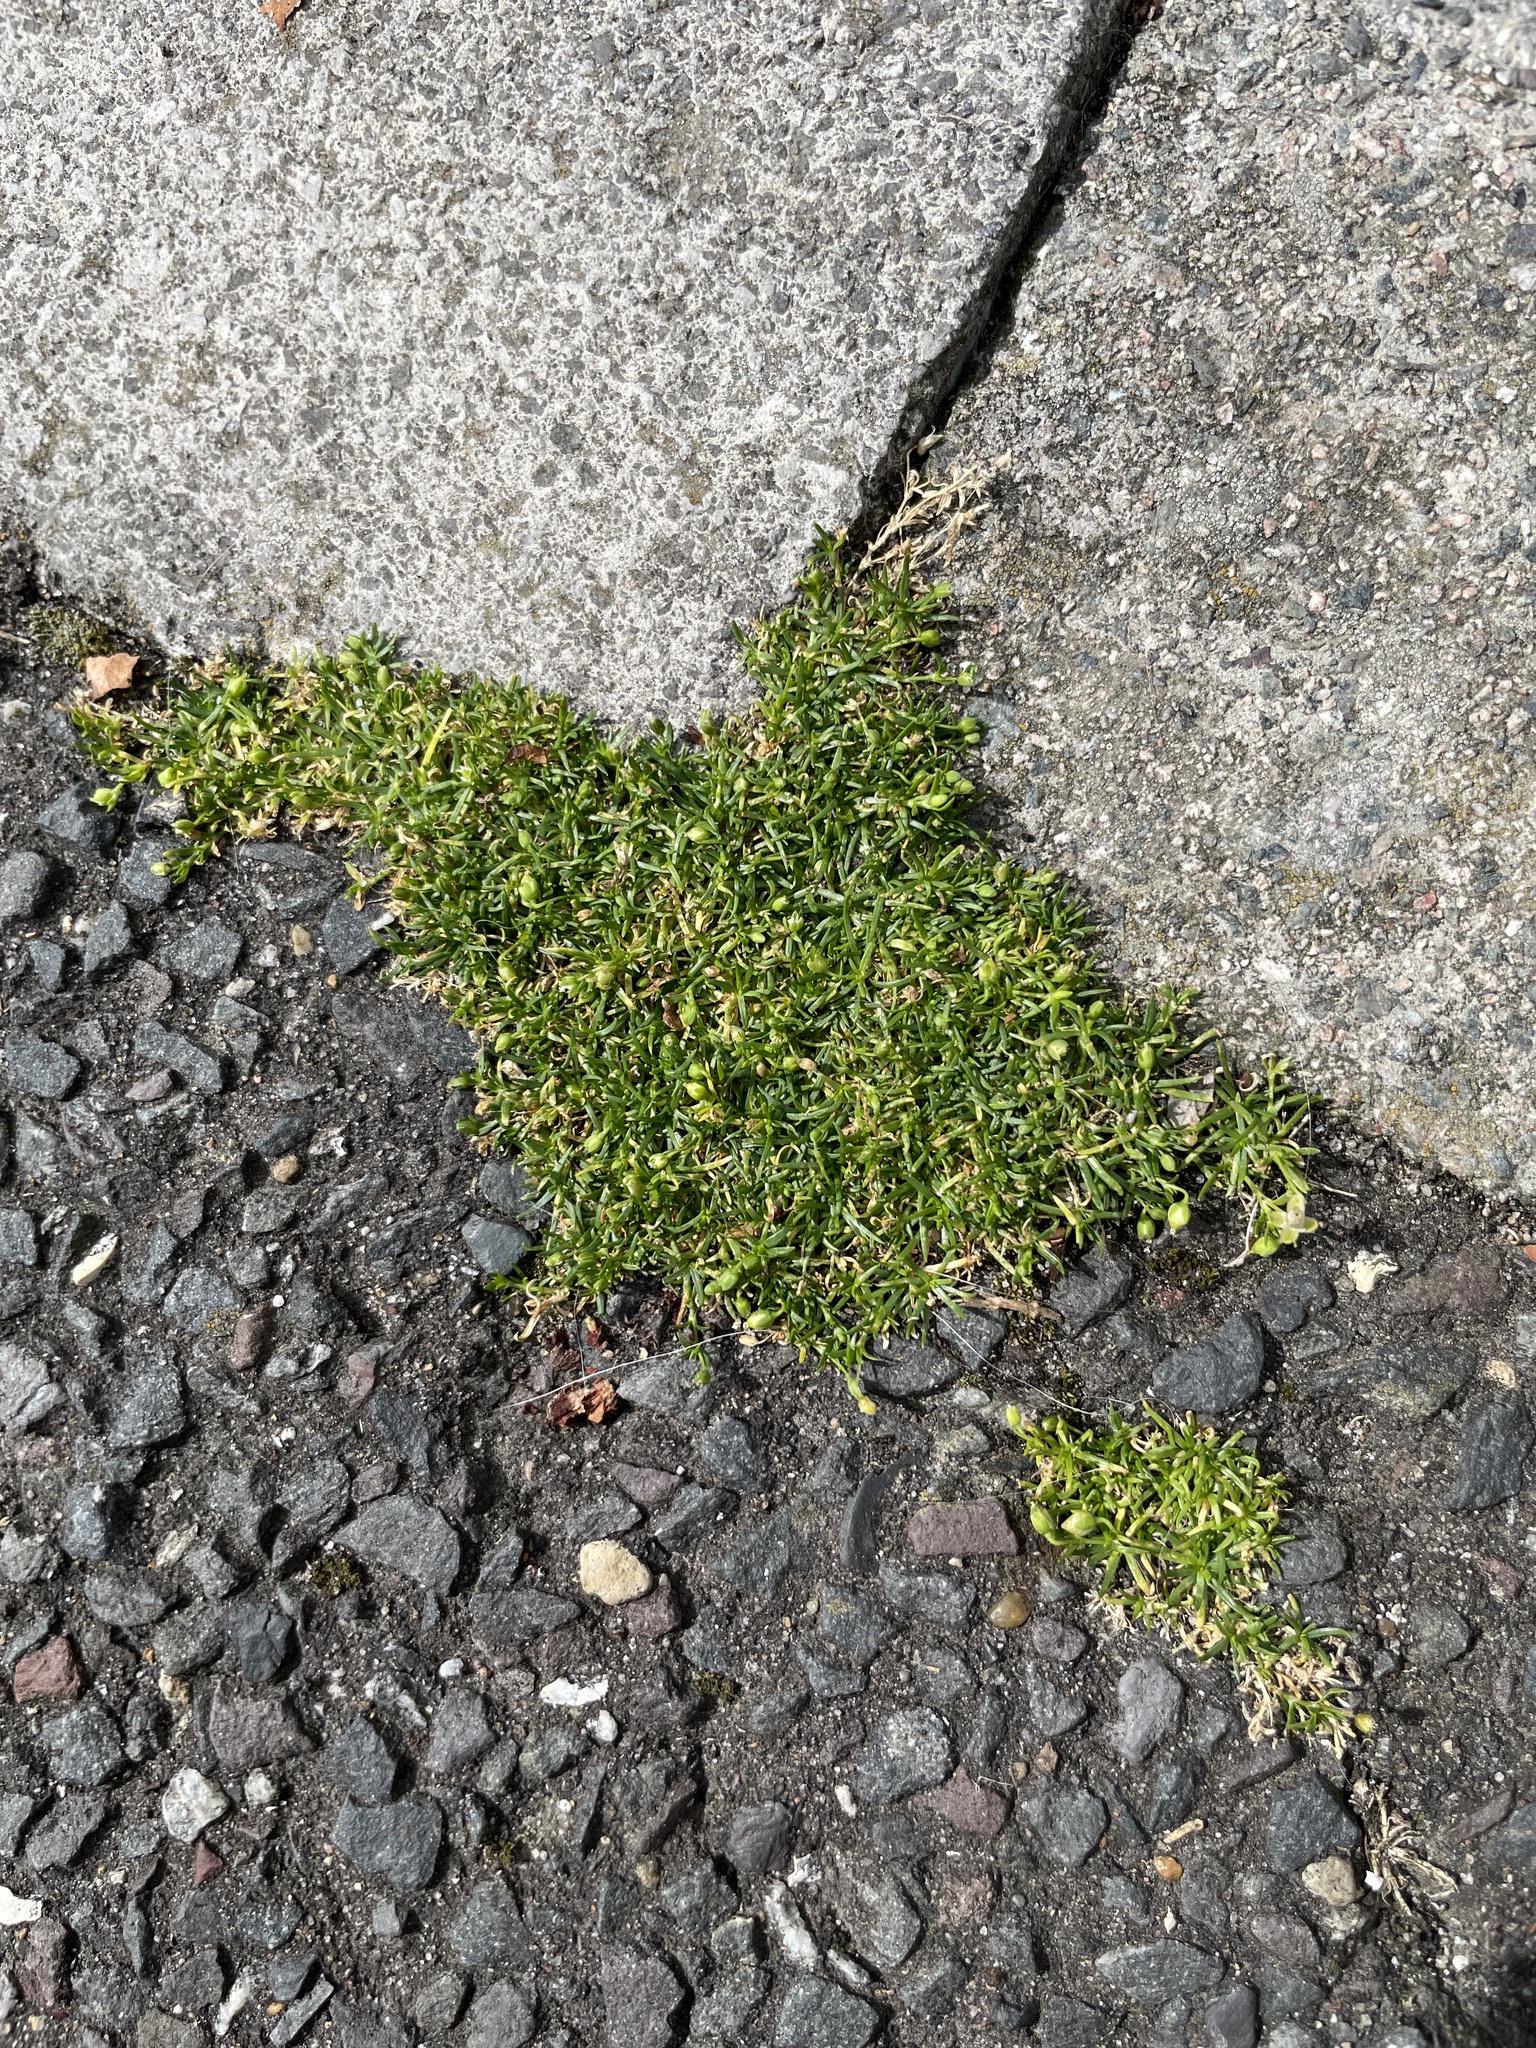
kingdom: Plantae
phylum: Tracheophyta
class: Magnoliopsida
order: Caryophyllales
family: Caryophyllaceae
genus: Sagina
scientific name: Sagina procumbens
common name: Procumbent pearlwort
